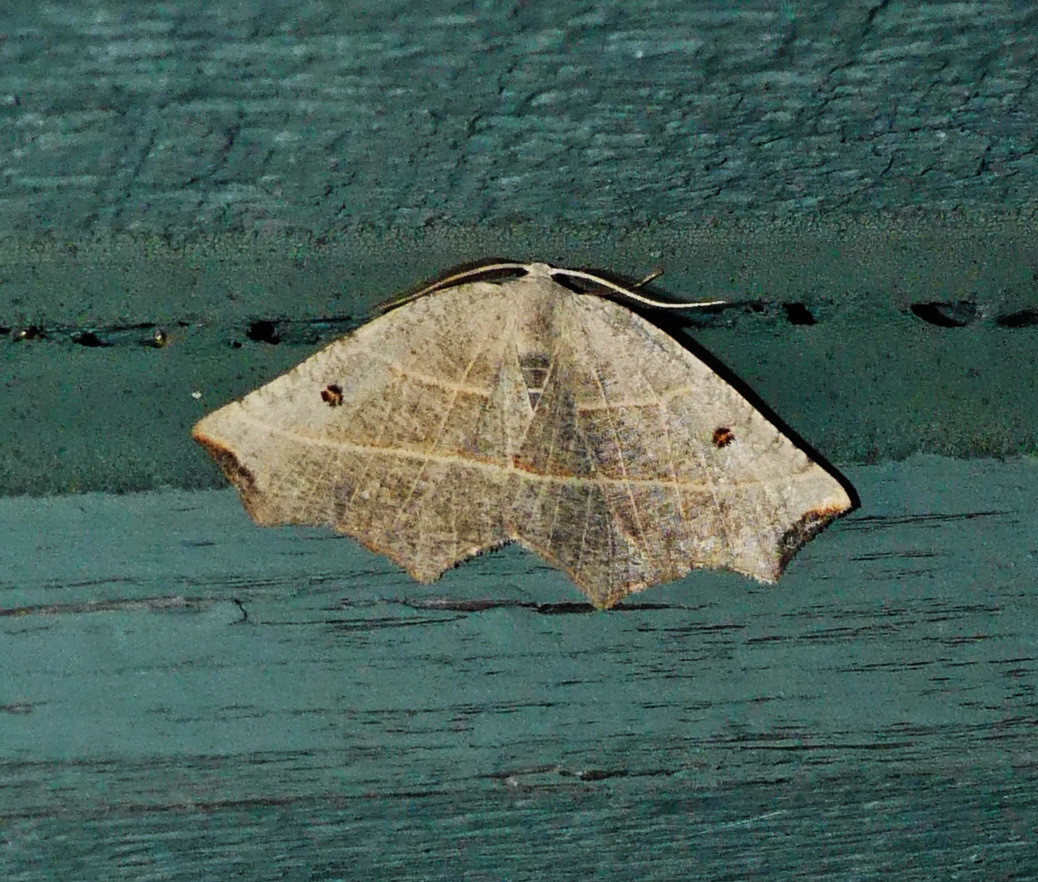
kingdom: Animalia
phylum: Arthropoda
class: Insecta
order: Lepidoptera
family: Geometridae
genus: Metanema
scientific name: Metanema inatomaria
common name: Pale metanema
